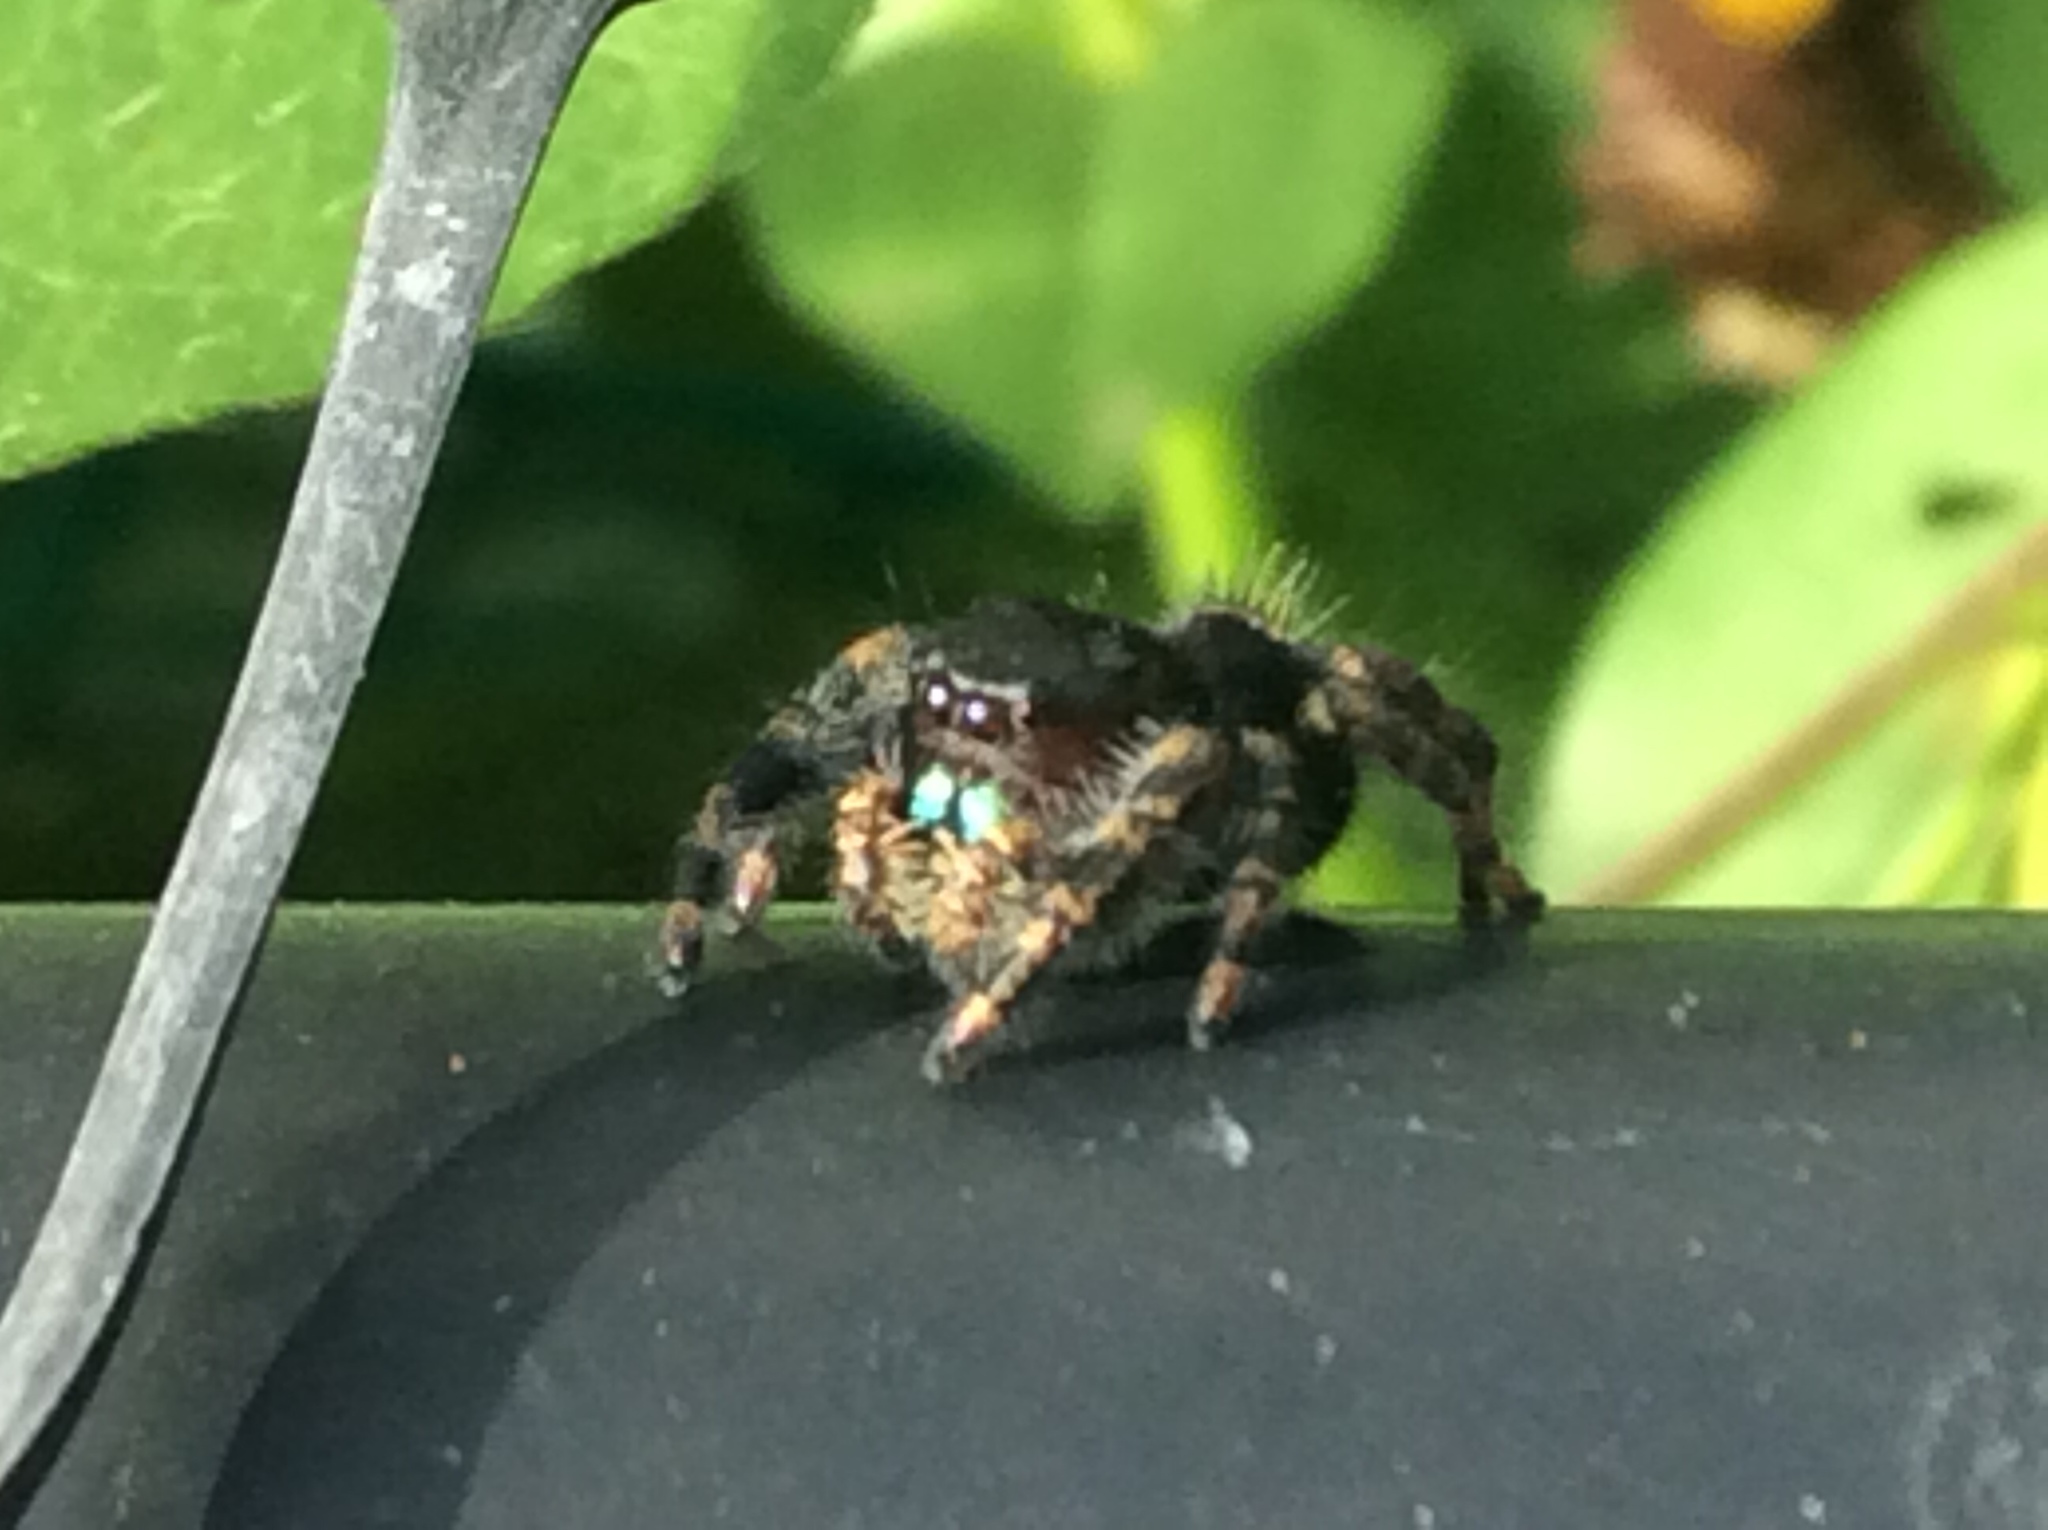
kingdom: Animalia
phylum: Arthropoda
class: Arachnida
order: Araneae
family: Salticidae
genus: Phidippus
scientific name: Phidippus audax
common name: Bold jumper
